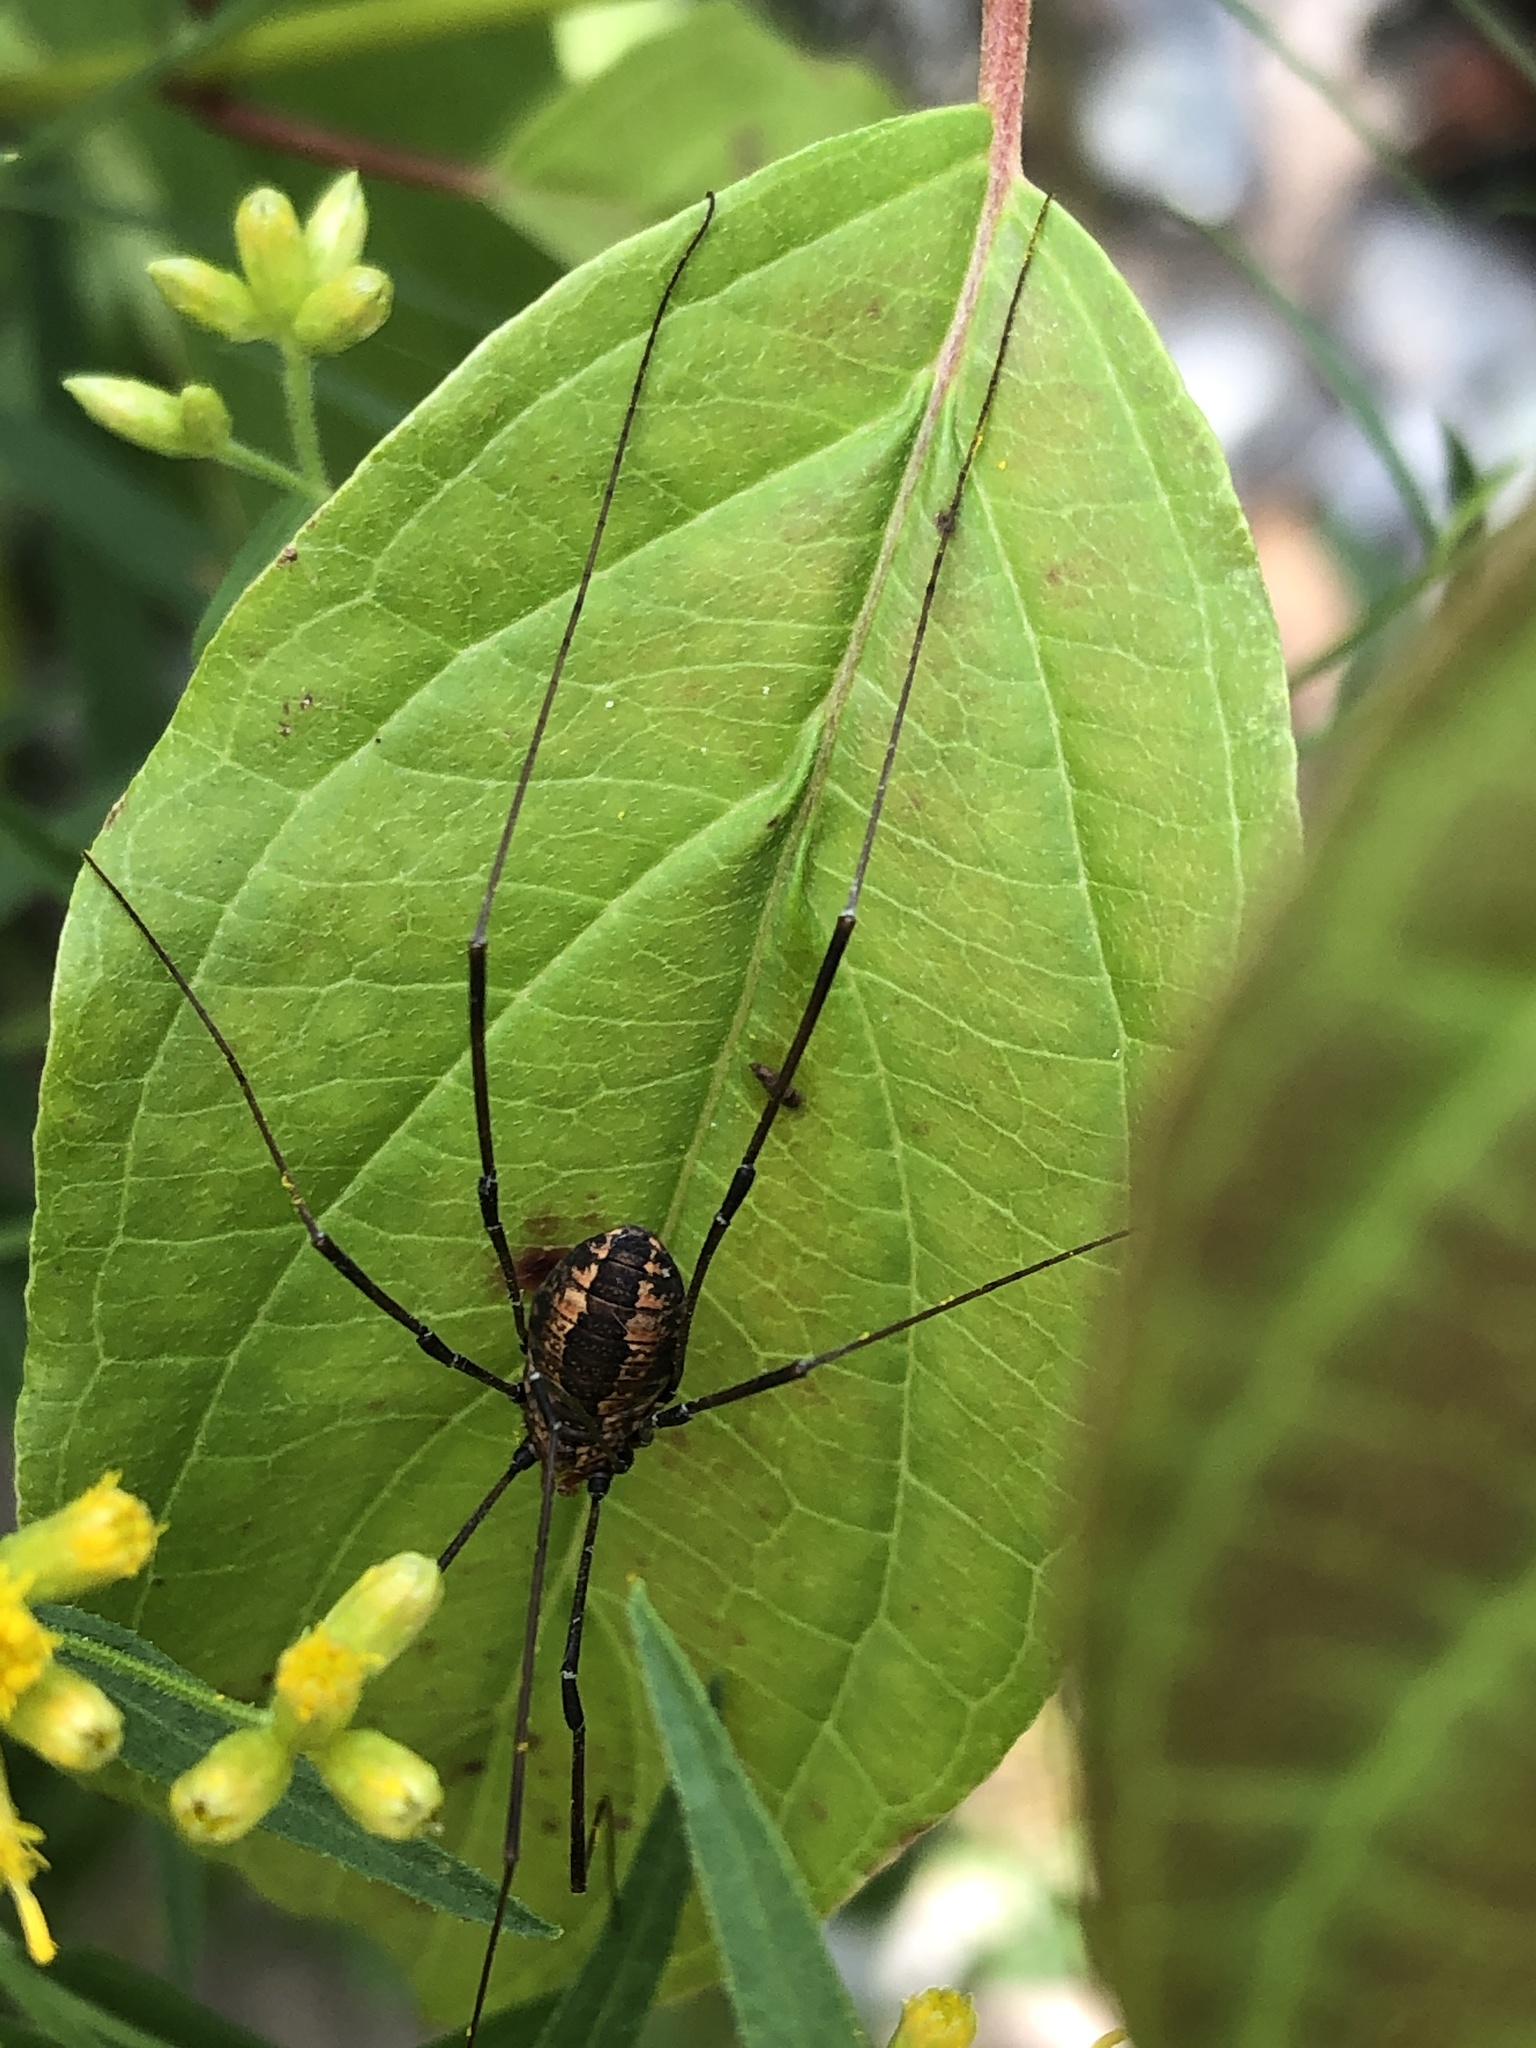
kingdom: Animalia
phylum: Arthropoda
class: Arachnida
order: Opiliones
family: Sclerosomatidae
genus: Leiobunum
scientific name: Leiobunum vittatum
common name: Eastern harvestman
